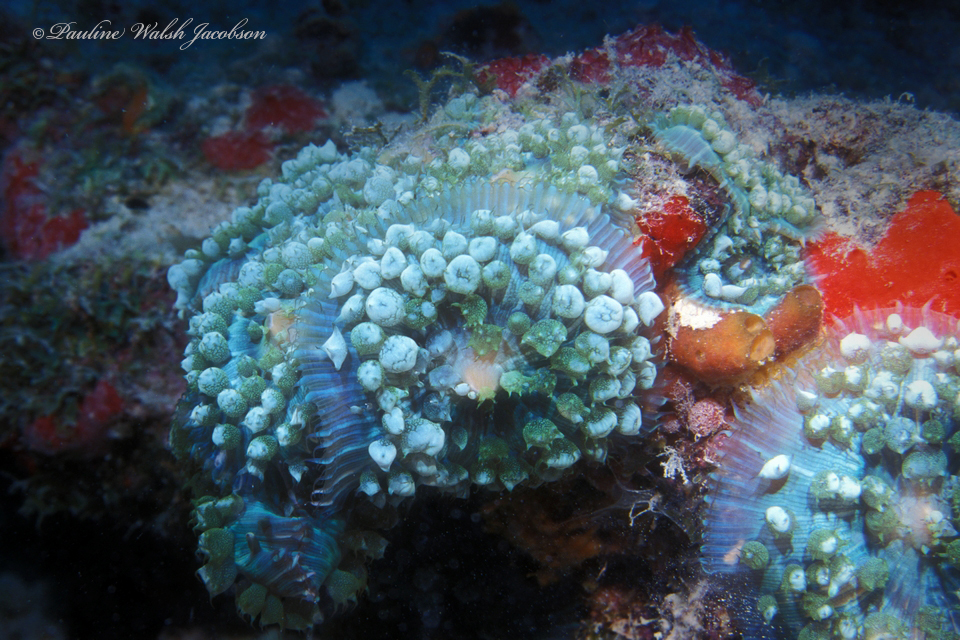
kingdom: Animalia
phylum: Cnidaria
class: Anthozoa
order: Corallimorpharia
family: Discosomidae
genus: Rhodactis
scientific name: Rhodactis osculifera
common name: Warty corallimorph
